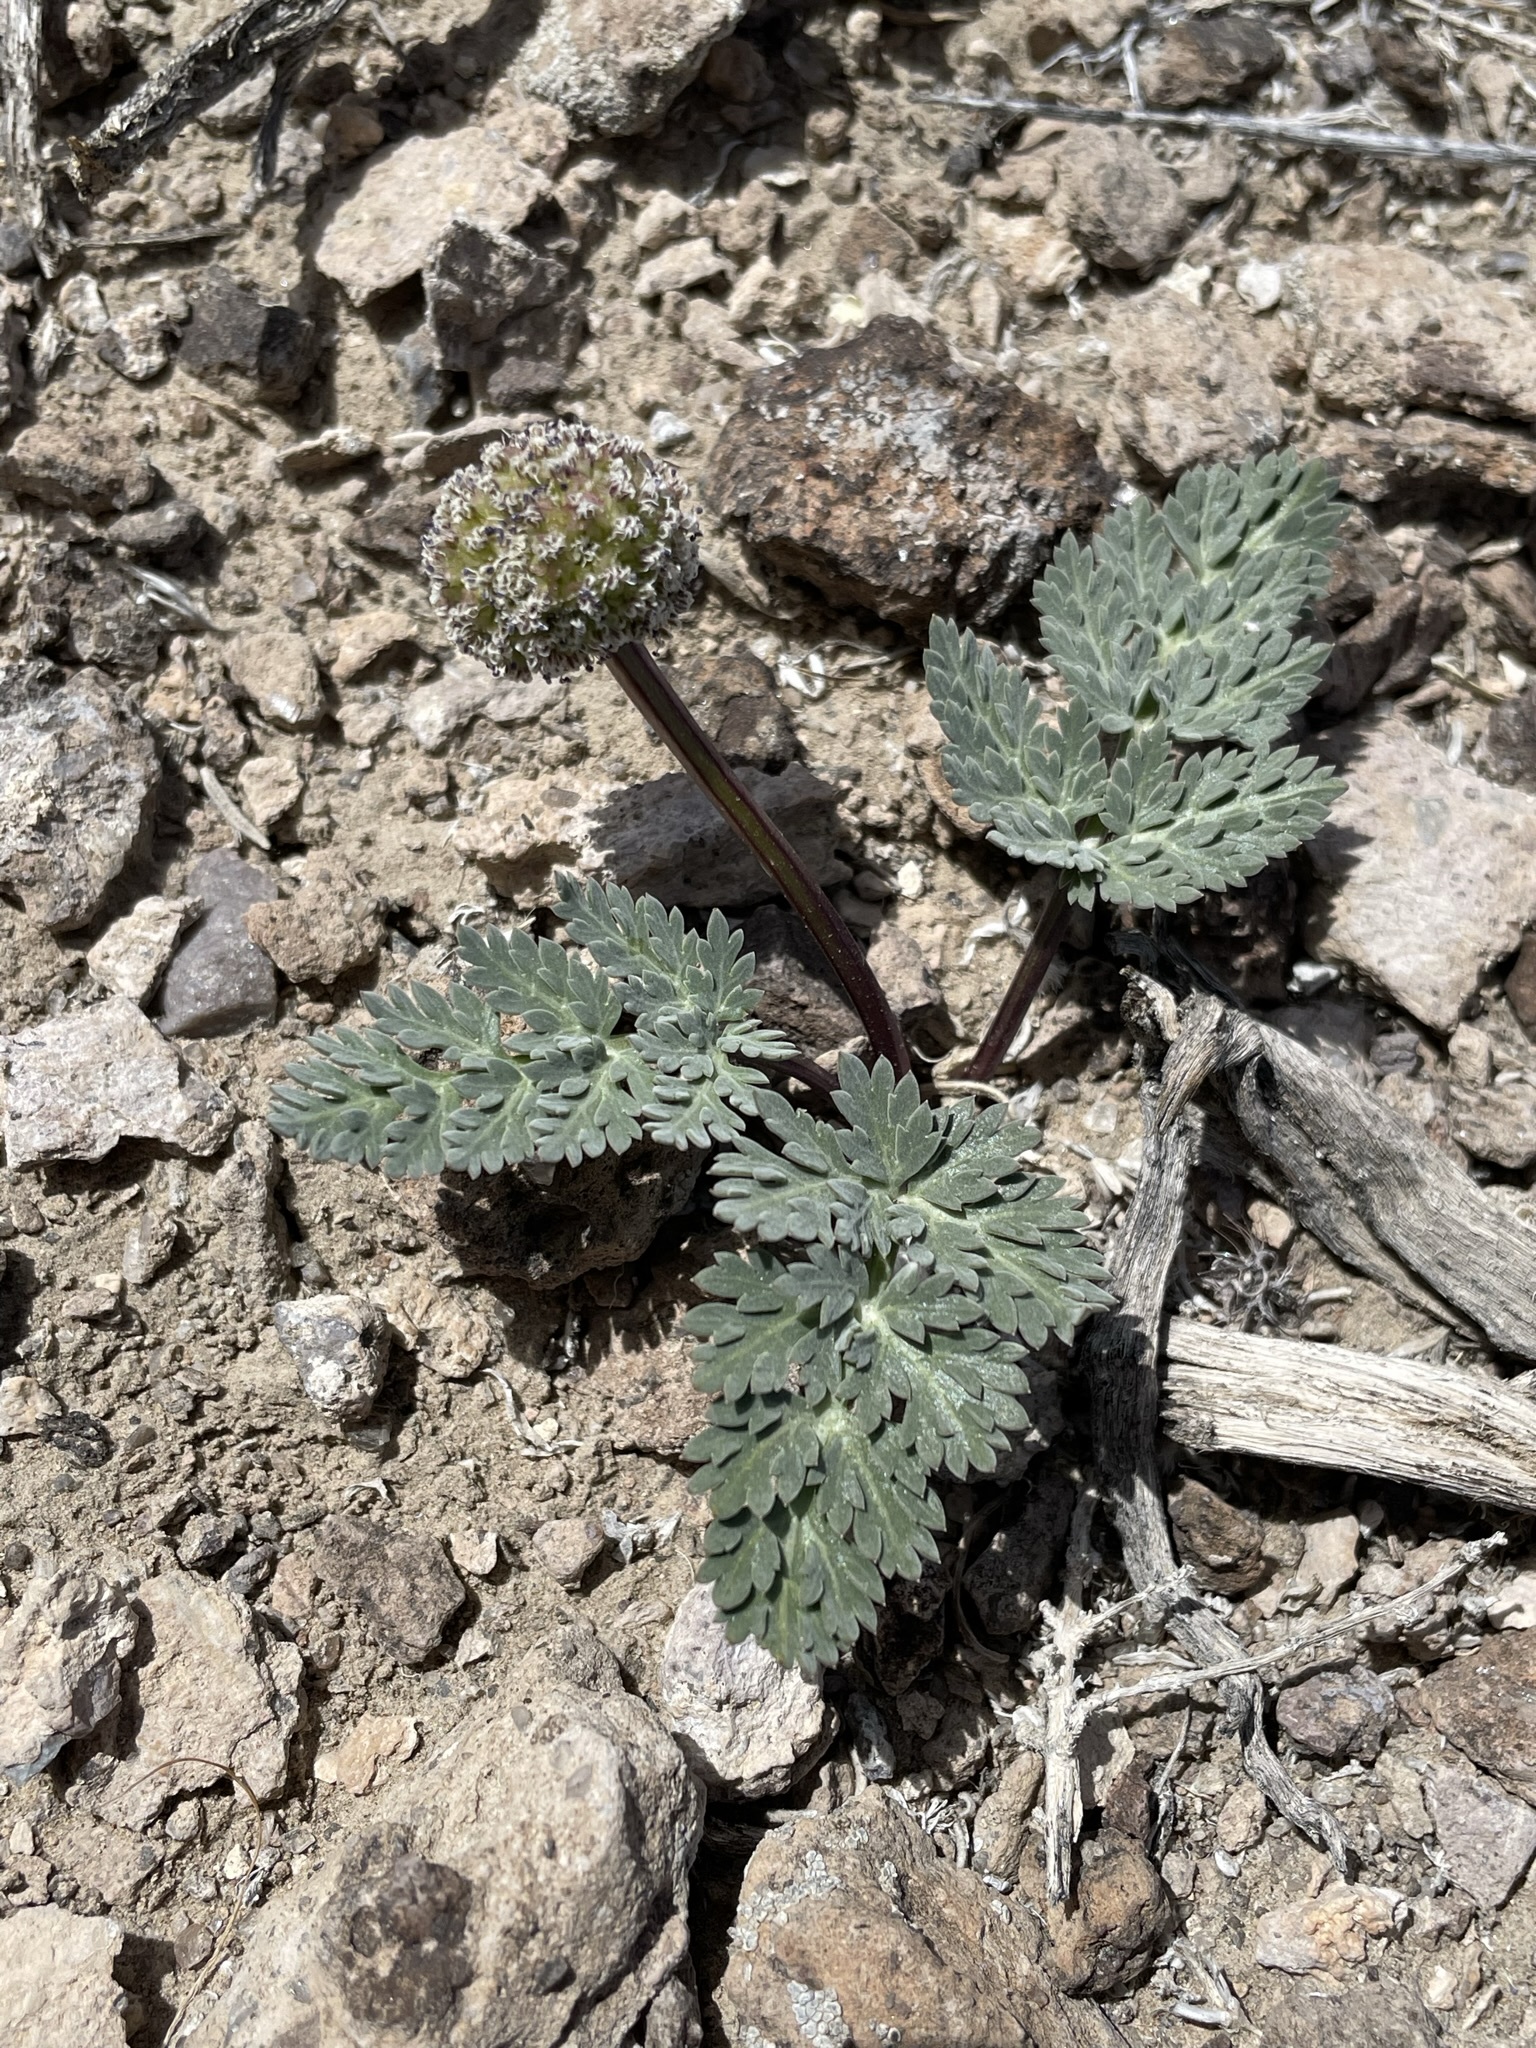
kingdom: Plantae
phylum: Tracheophyta
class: Magnoliopsida
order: Apiales
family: Apiaceae
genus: Cymopterus
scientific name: Cymopterus globosus
